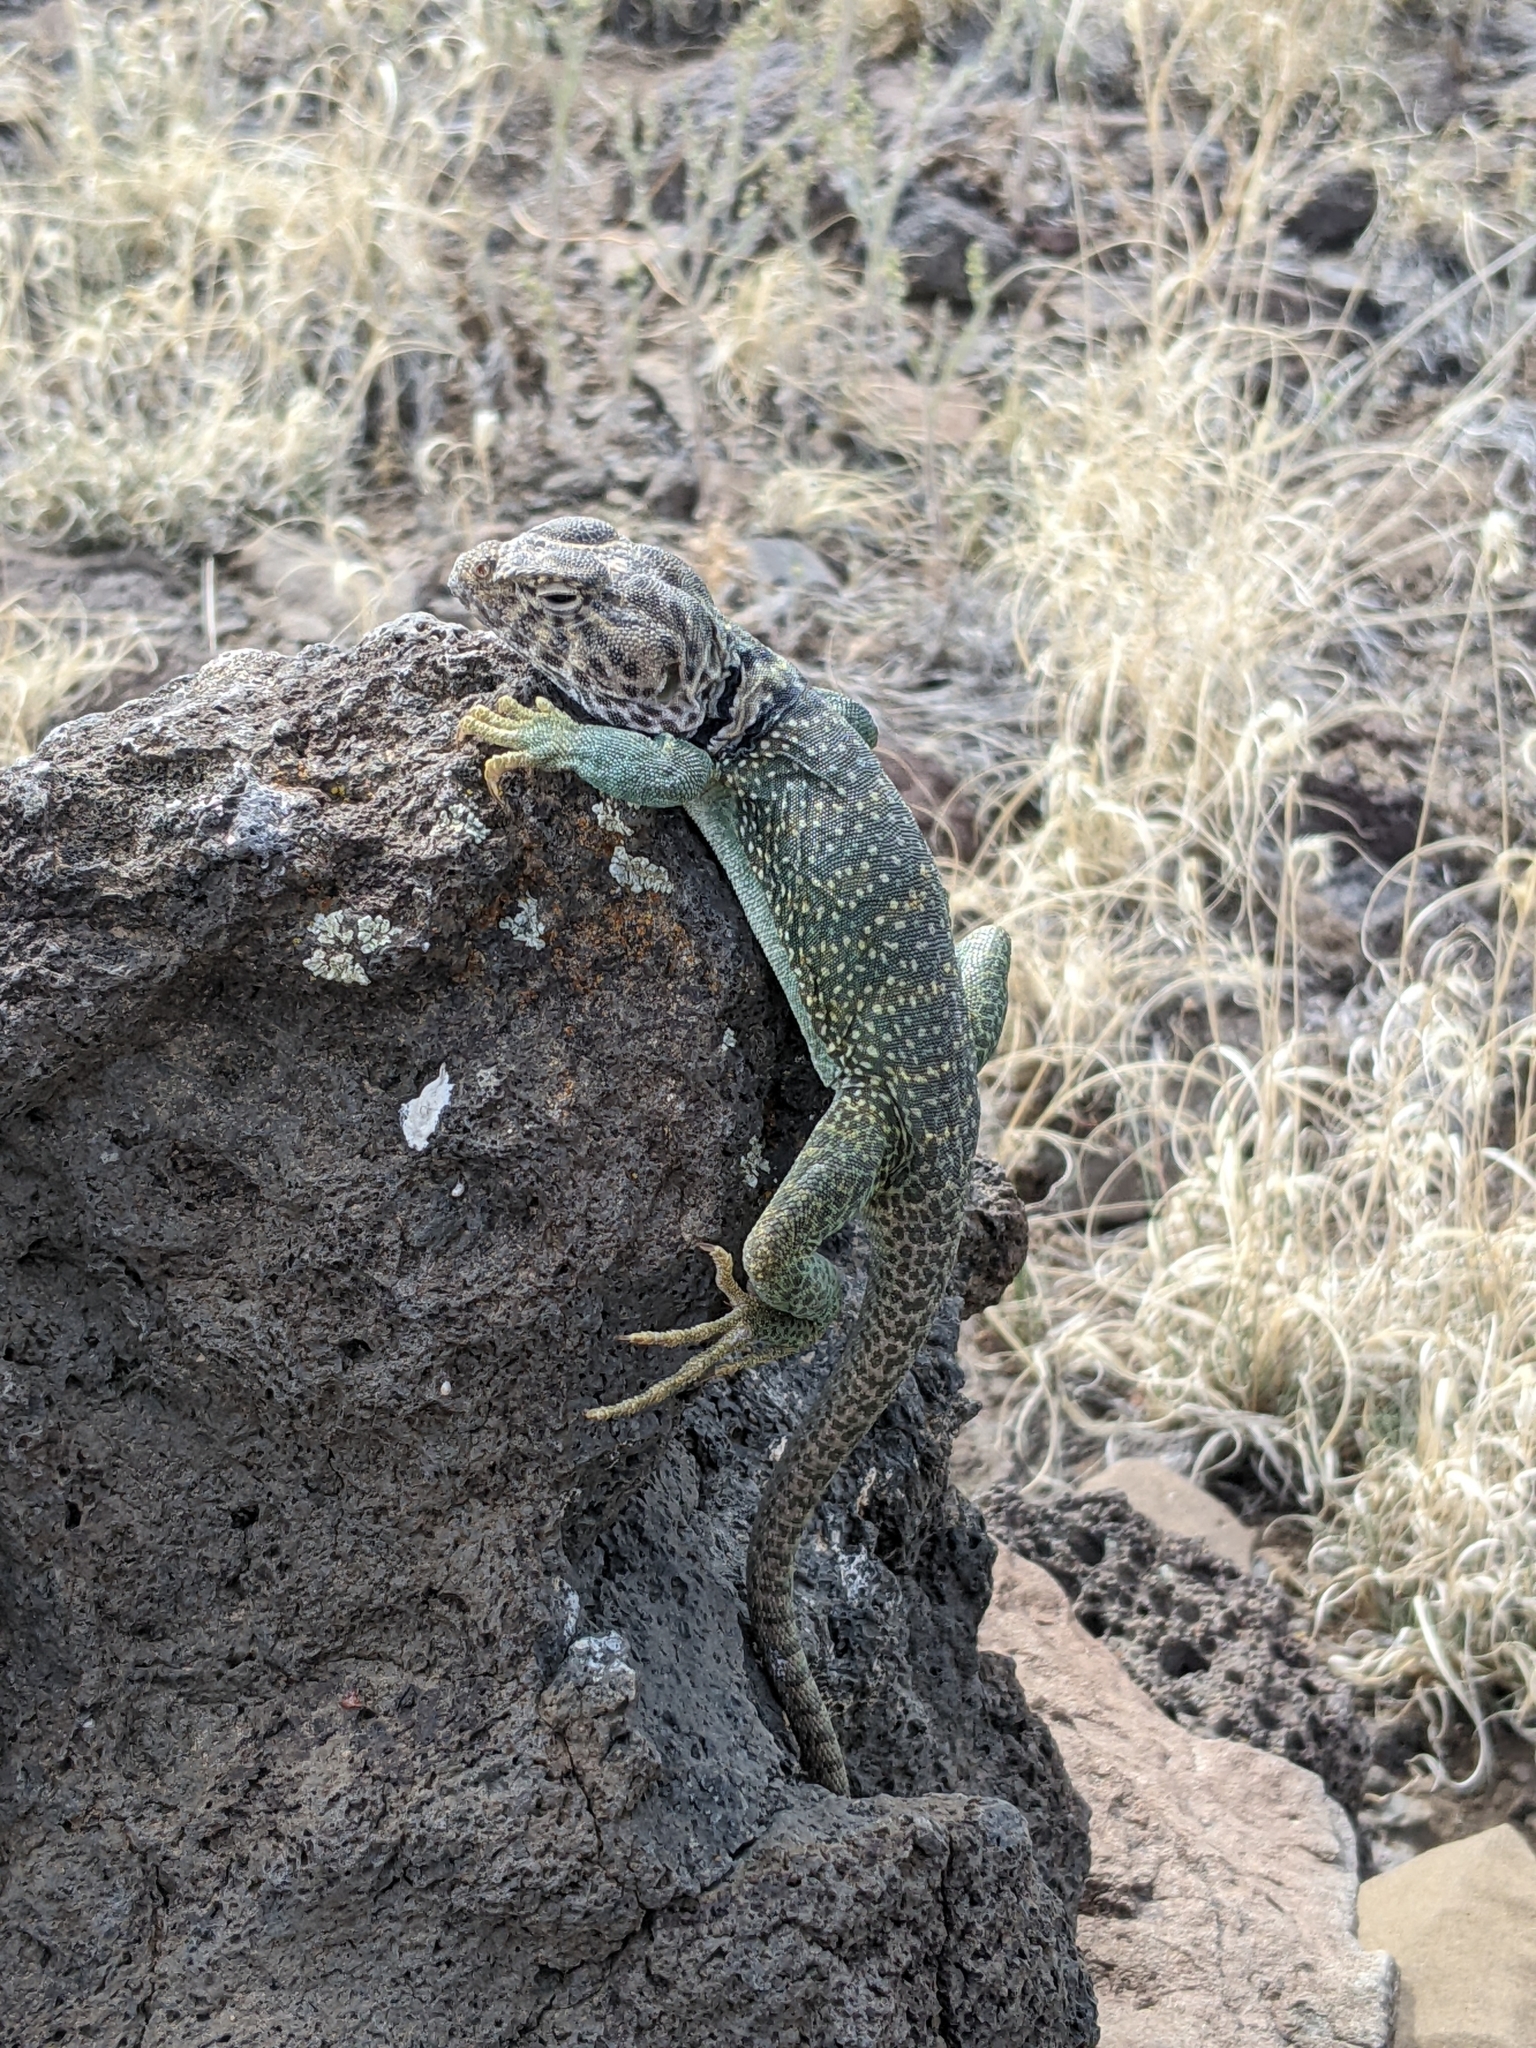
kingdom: Animalia
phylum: Chordata
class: Squamata
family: Crotaphytidae
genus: Crotaphytus
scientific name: Crotaphytus collaris
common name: Collared lizard
